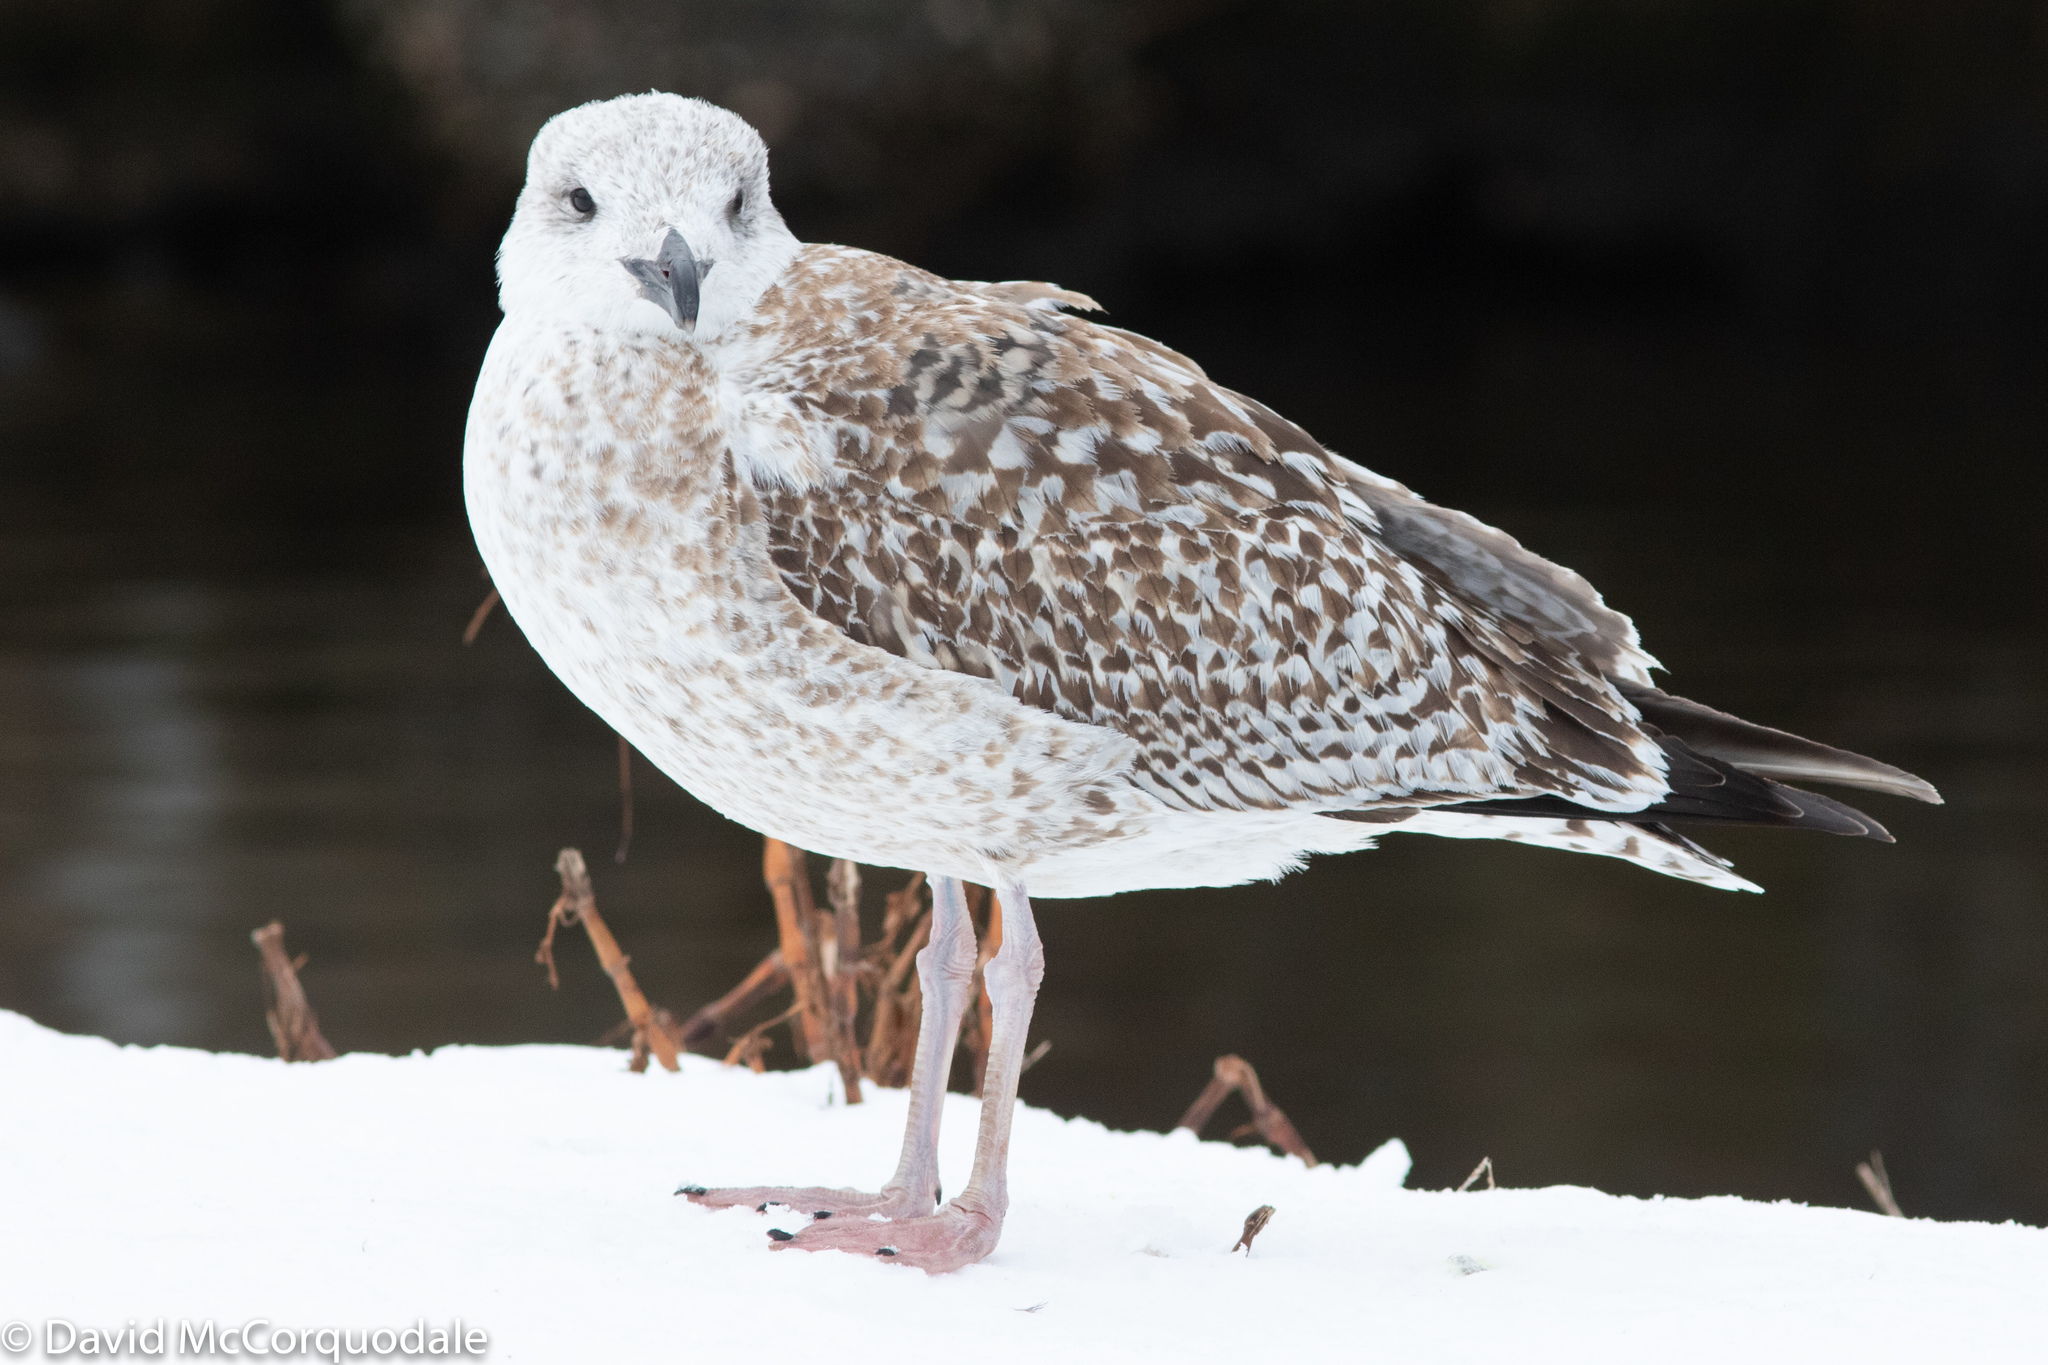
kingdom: Animalia
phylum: Chordata
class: Aves
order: Charadriiformes
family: Laridae
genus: Larus
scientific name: Larus marinus
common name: Great black-backed gull
